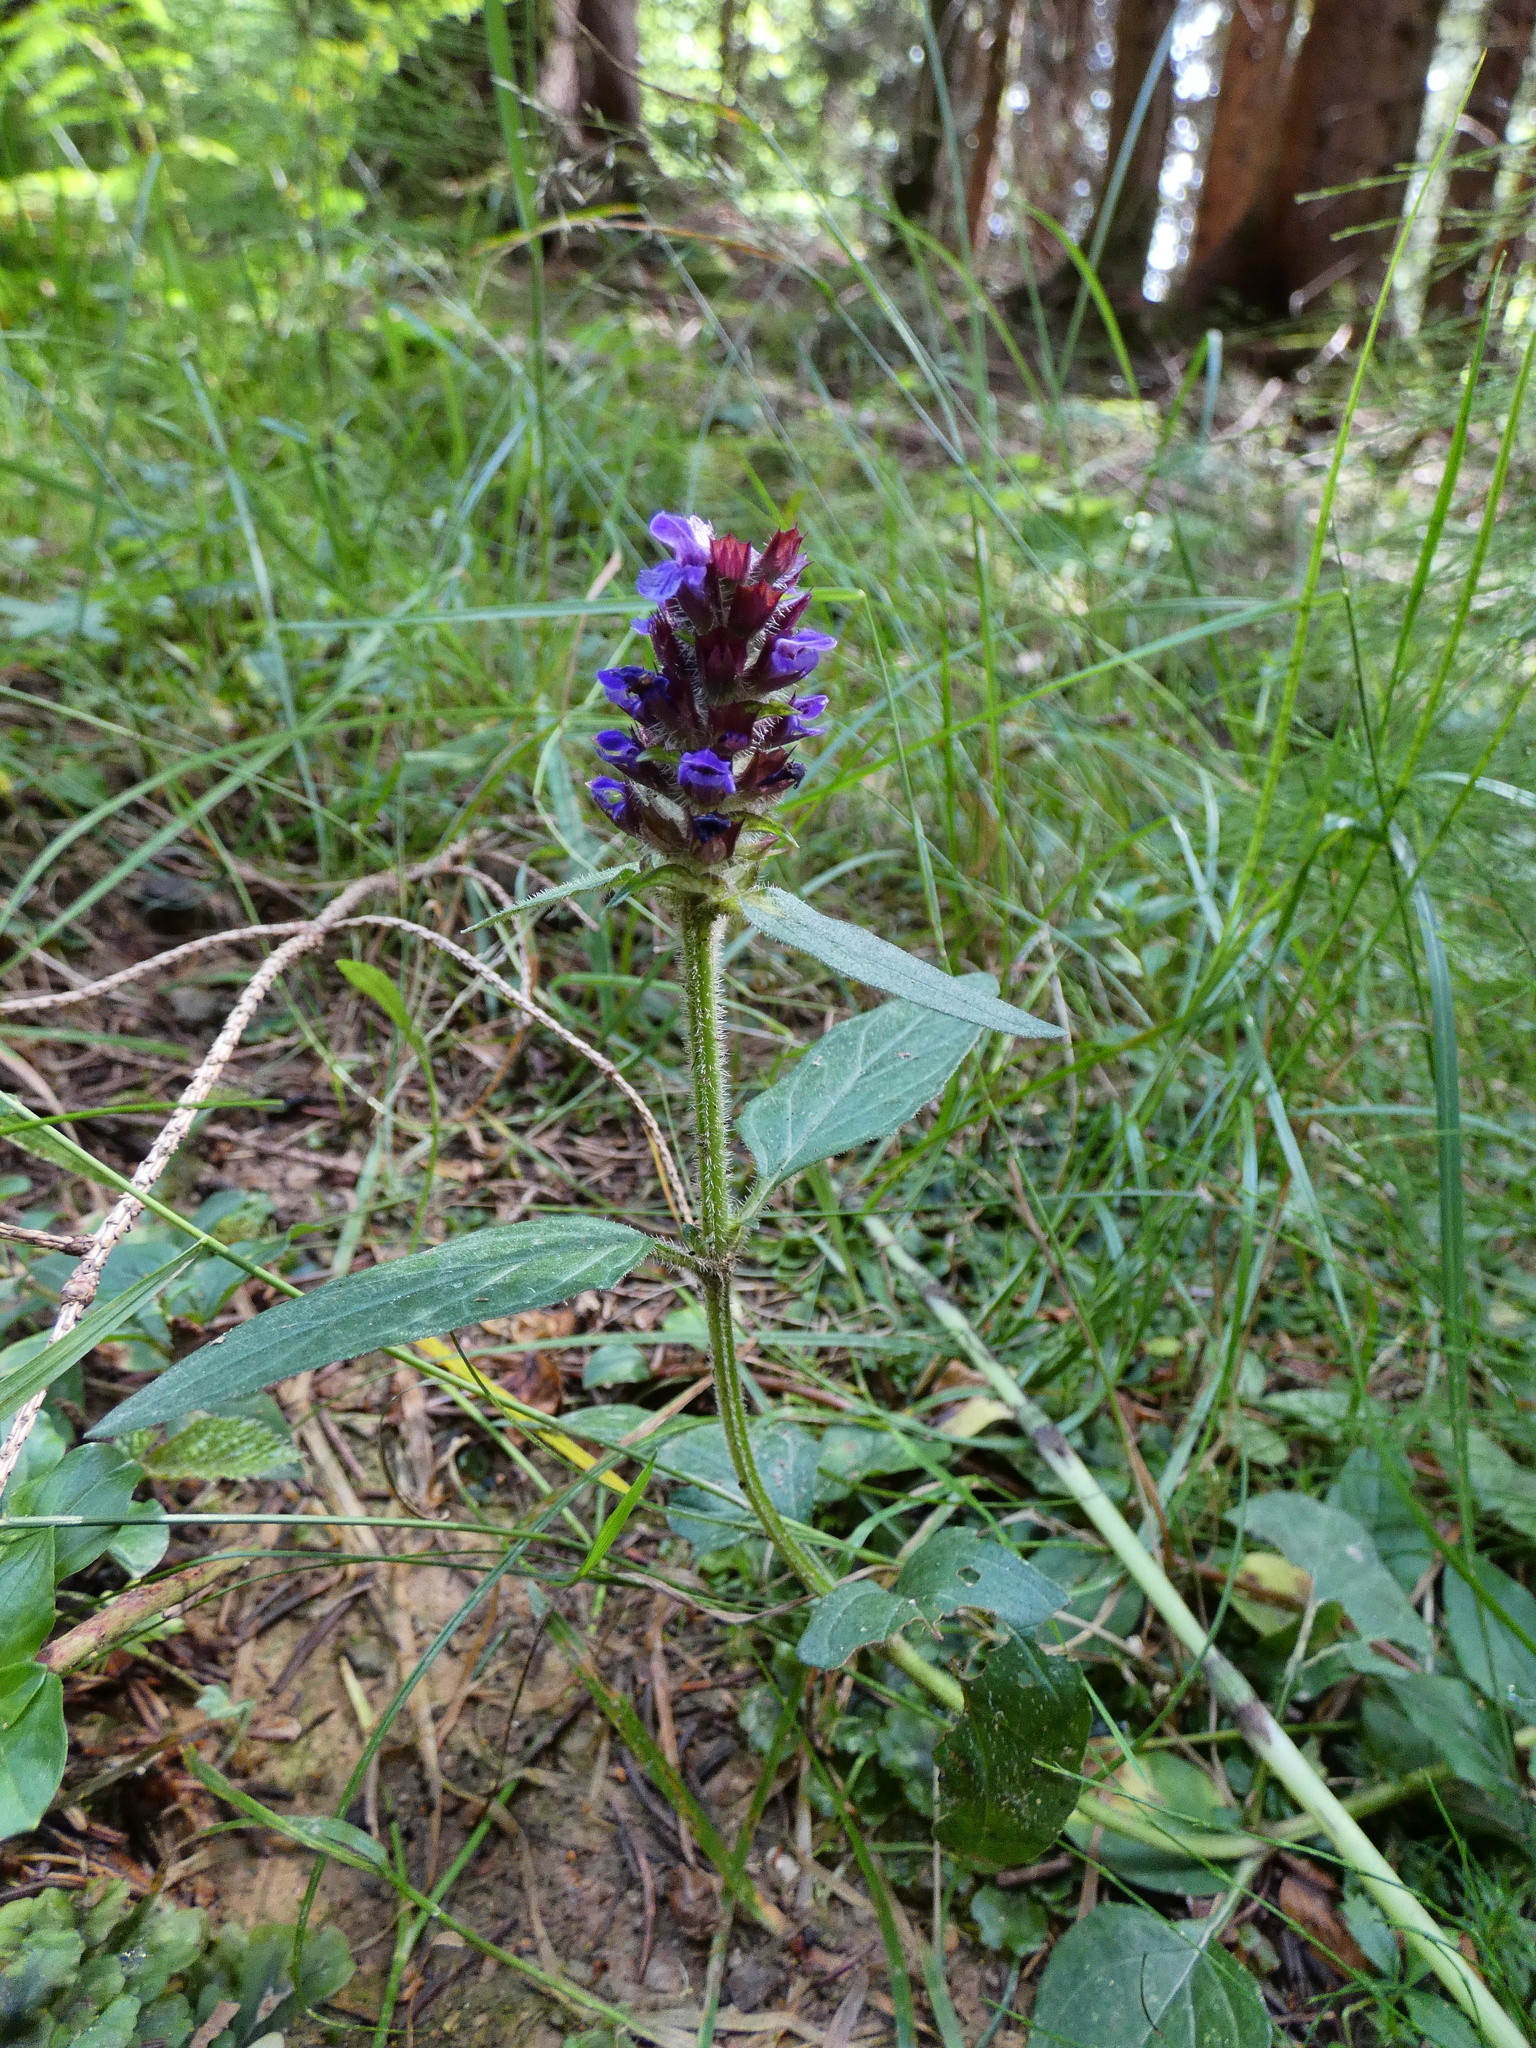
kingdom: Plantae
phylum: Tracheophyta
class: Magnoliopsida
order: Lamiales
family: Lamiaceae
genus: Prunella
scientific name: Prunella vulgaris
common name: Heal-all
